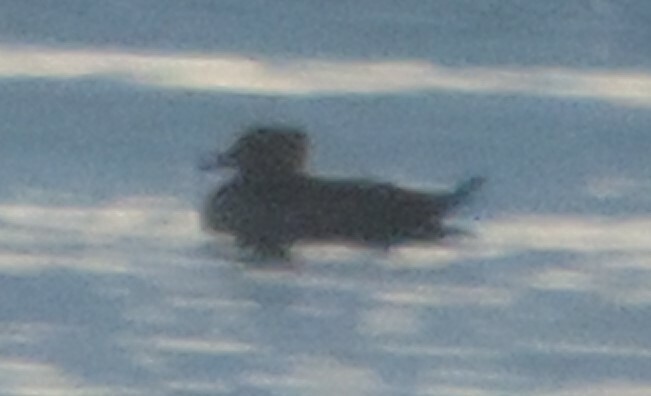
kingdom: Animalia
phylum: Chordata
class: Aves
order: Anseriformes
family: Anatidae
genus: Lophodytes
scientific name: Lophodytes cucullatus
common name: Hooded merganser
